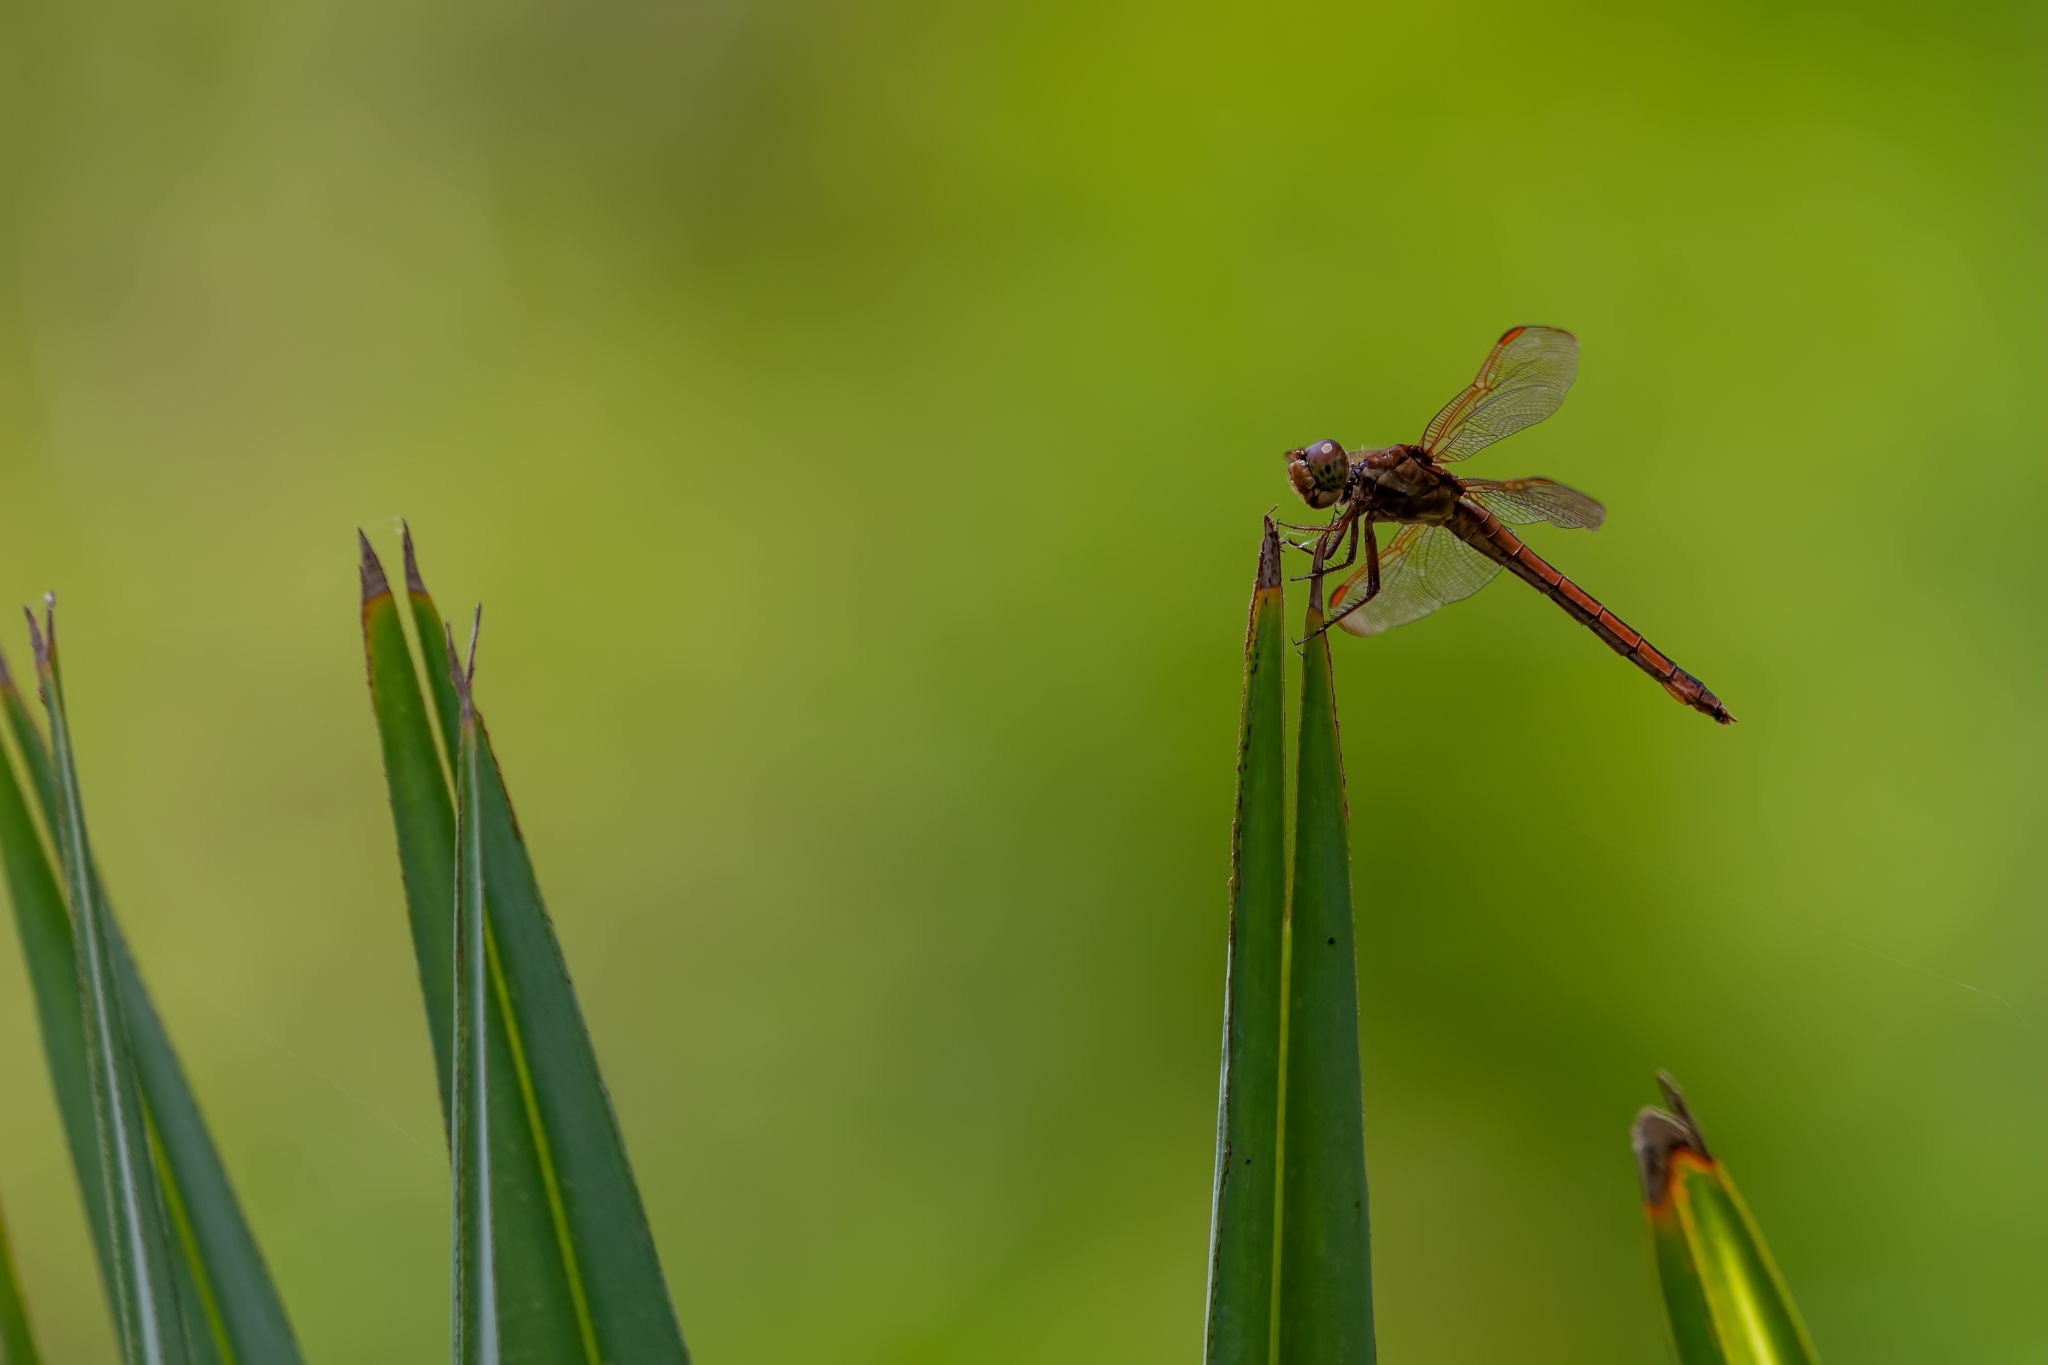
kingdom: Animalia
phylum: Arthropoda
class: Insecta
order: Odonata
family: Libellulidae
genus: Libellula
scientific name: Libellula needhami
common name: Needham's skimmer
